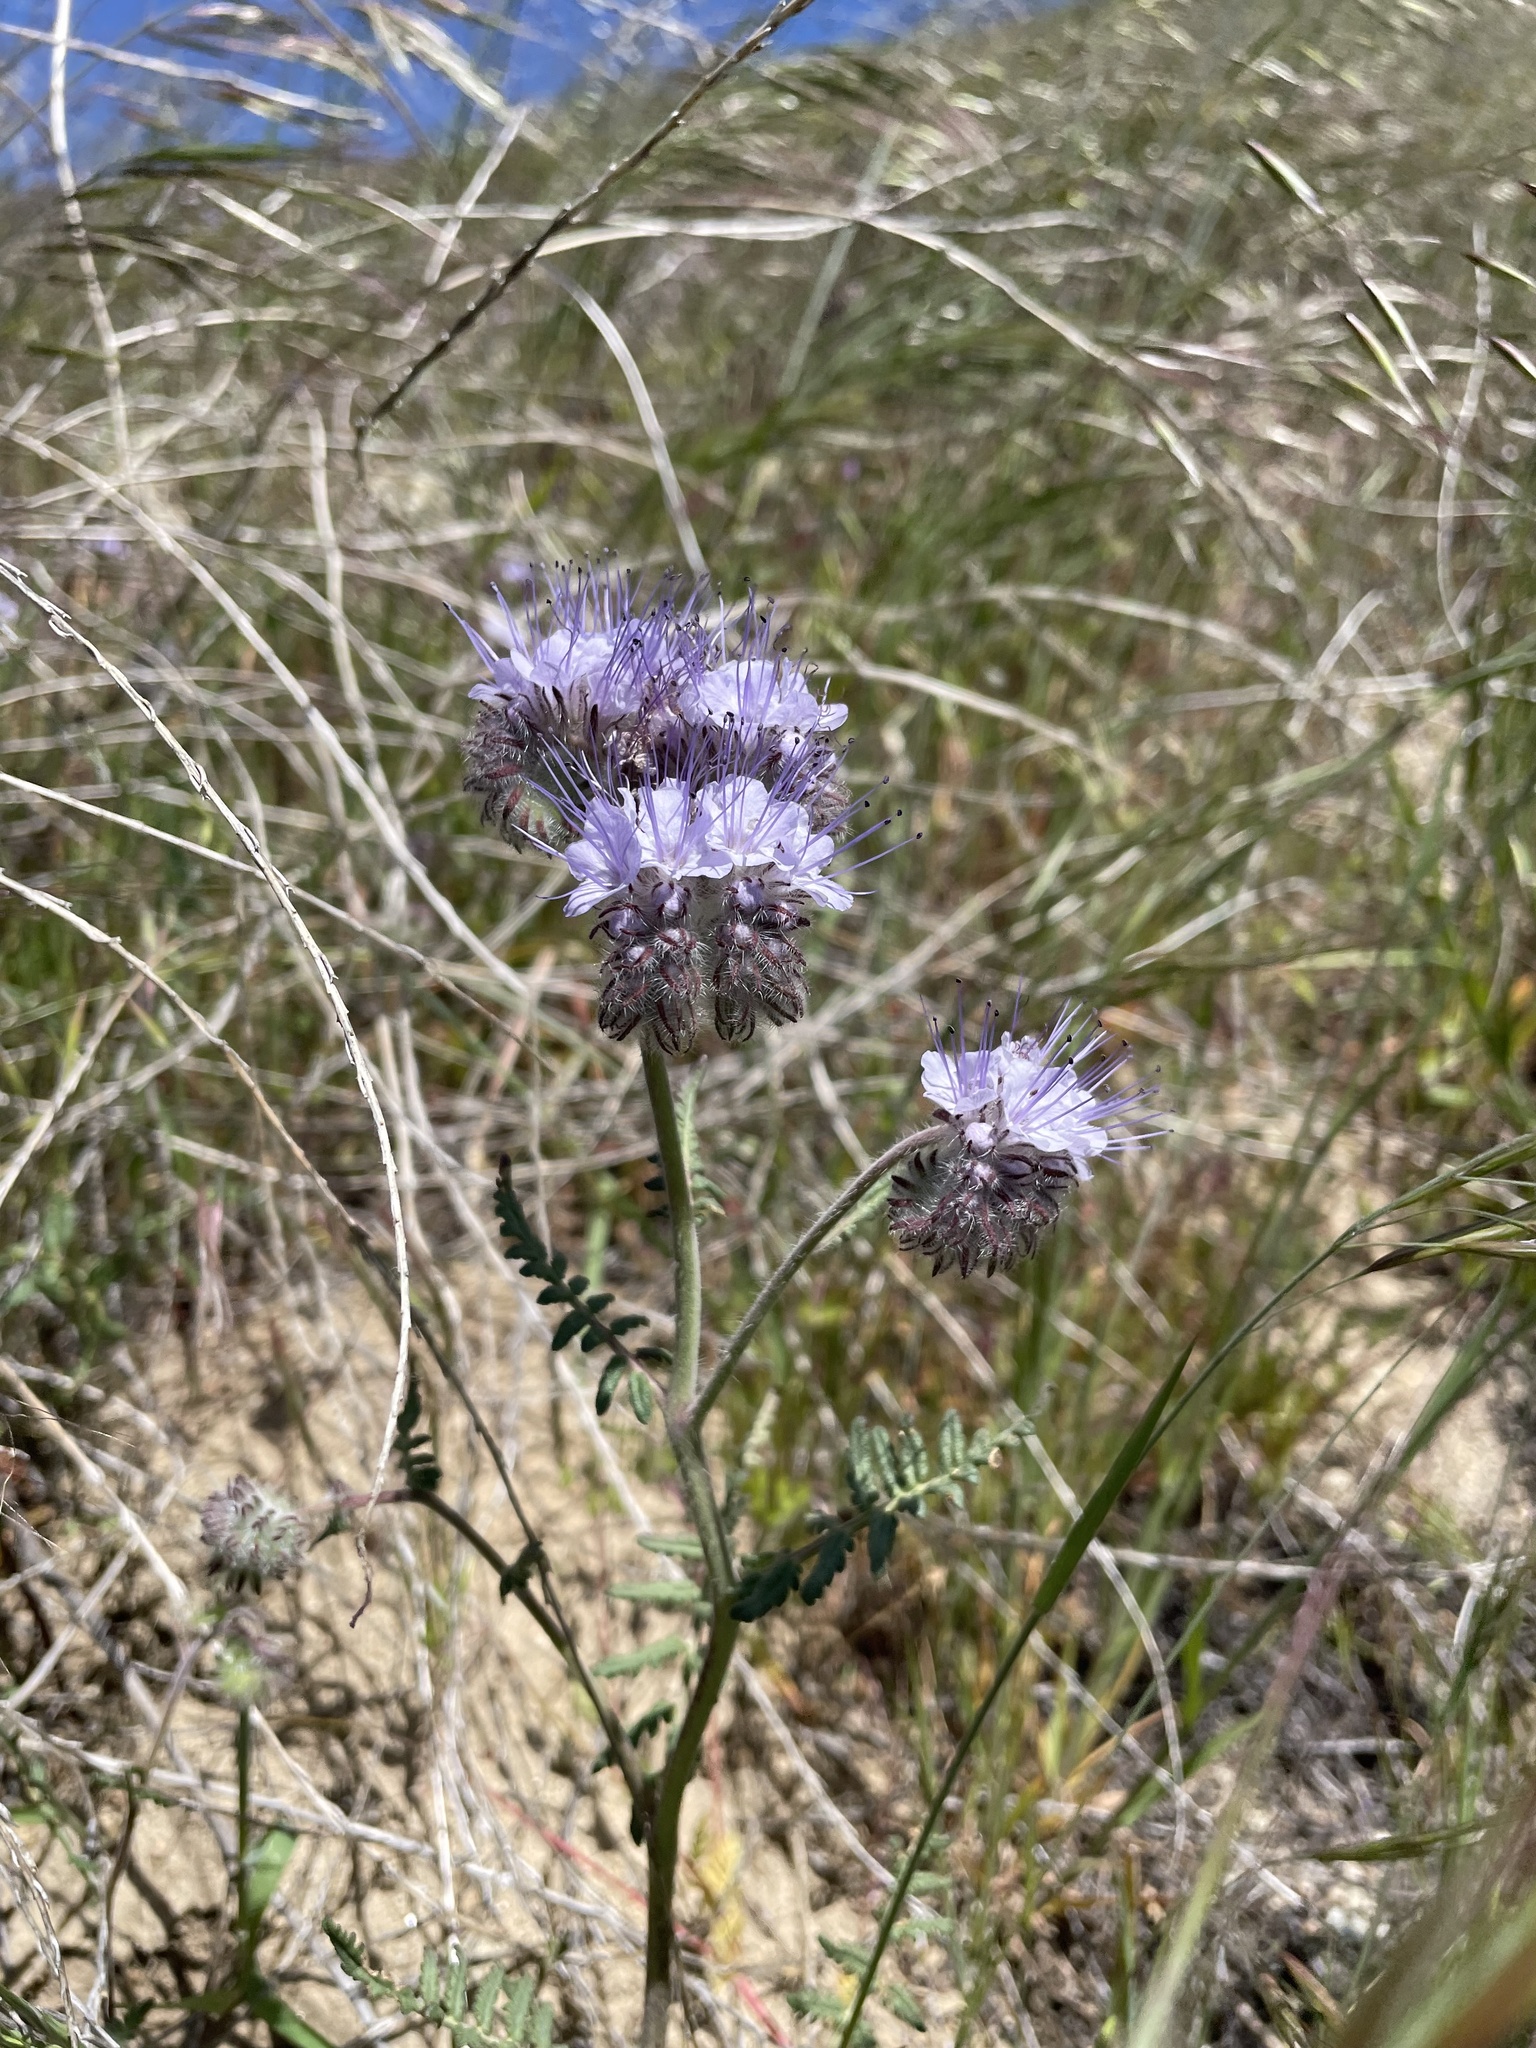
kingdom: Plantae
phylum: Tracheophyta
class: Magnoliopsida
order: Boraginales
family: Hydrophyllaceae
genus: Phacelia
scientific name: Phacelia tanacetifolia
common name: Phacelia
